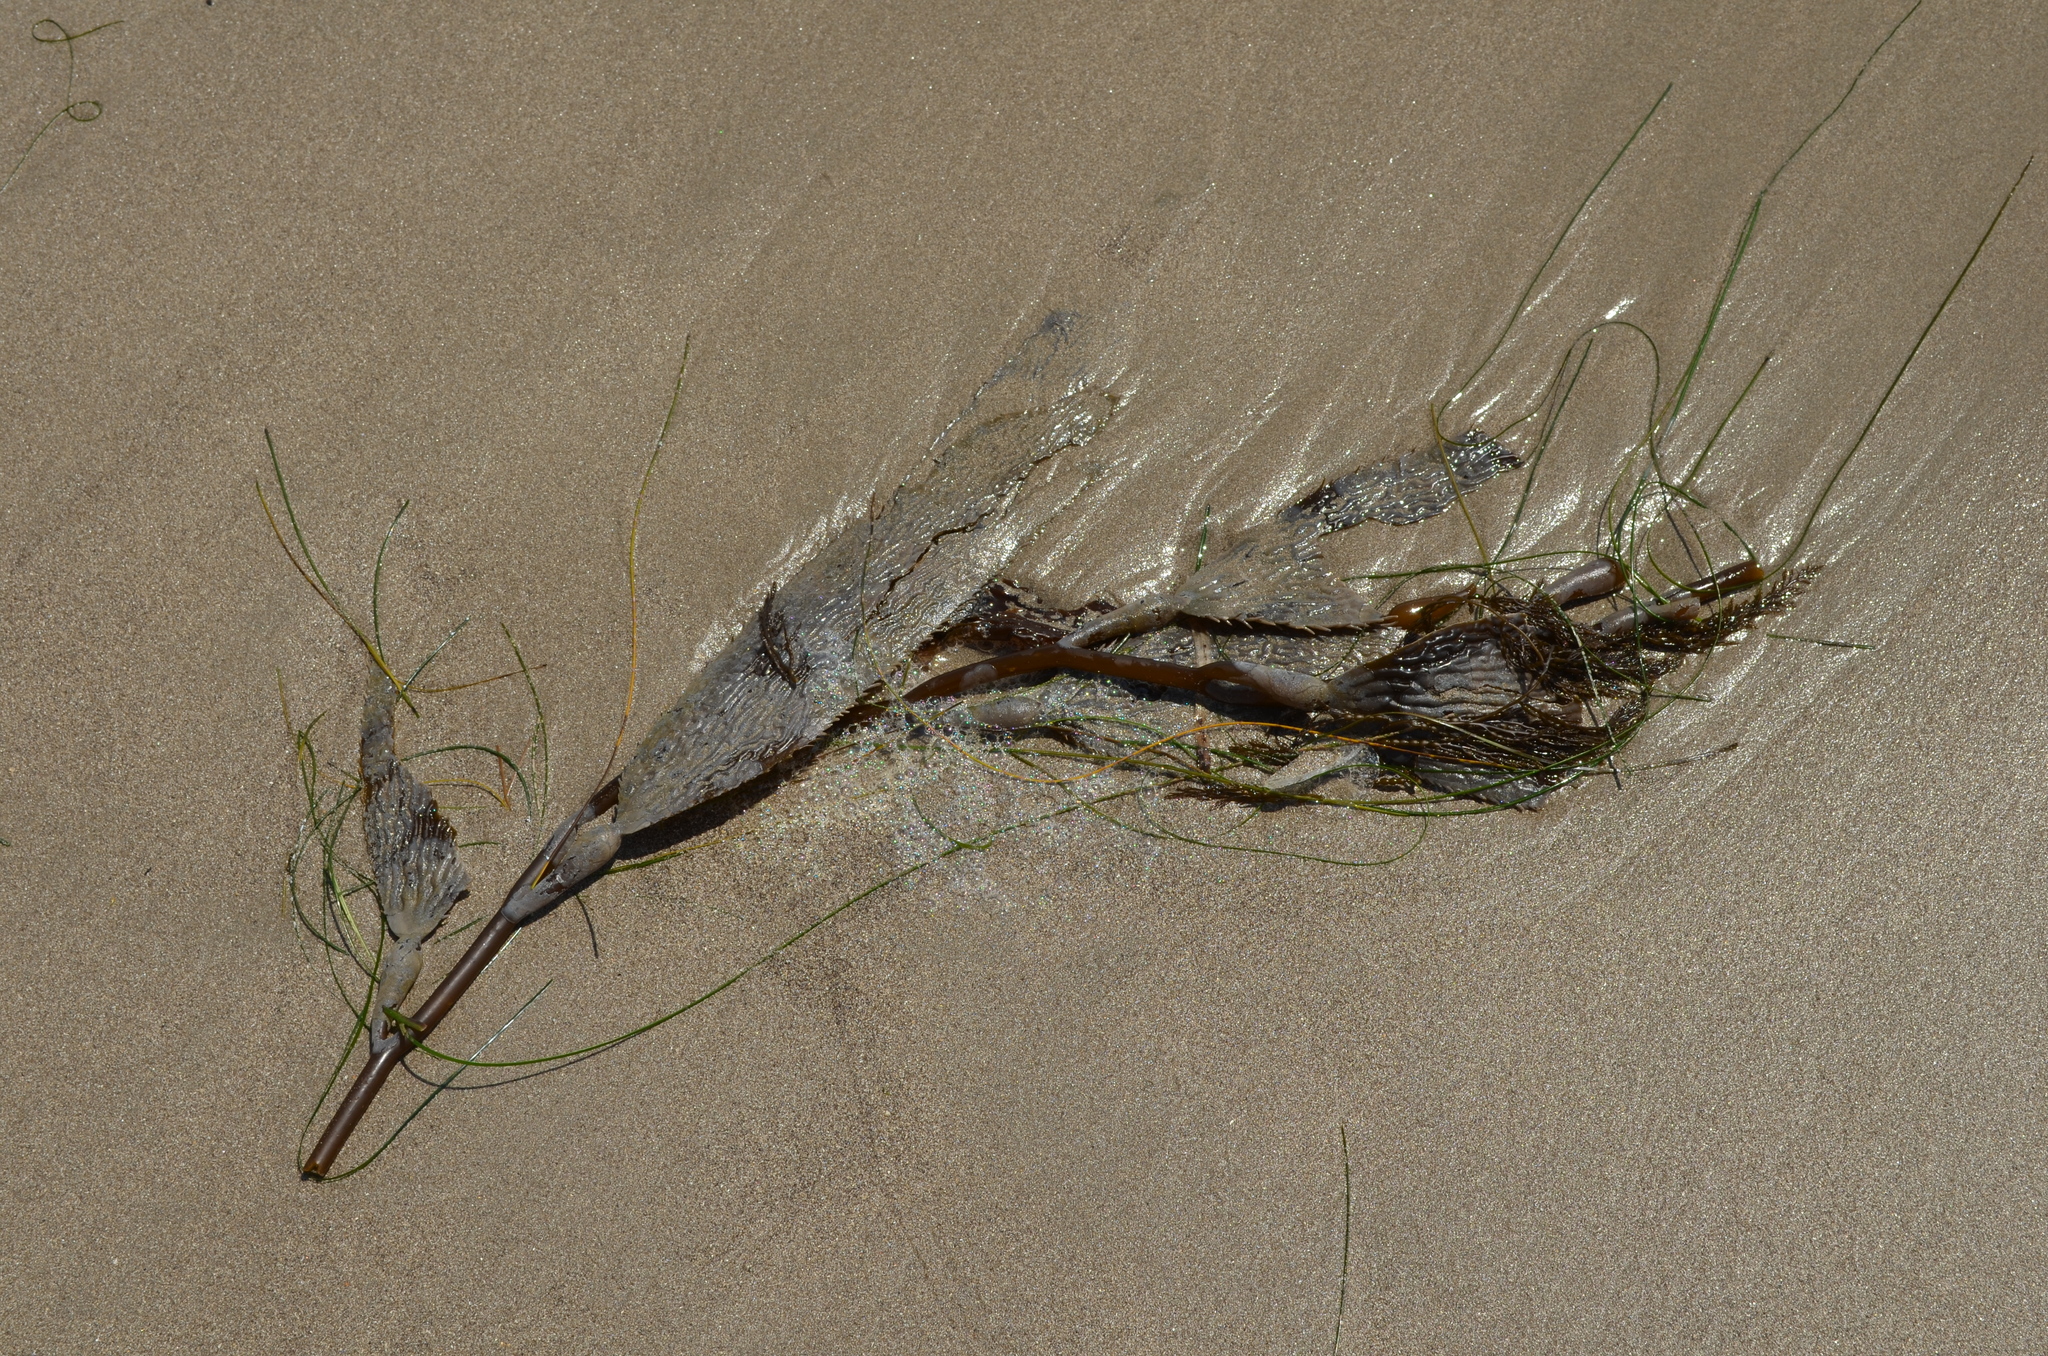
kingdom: Chromista
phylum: Ochrophyta
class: Phaeophyceae
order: Laminariales
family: Laminariaceae
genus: Macrocystis
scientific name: Macrocystis pyrifera
